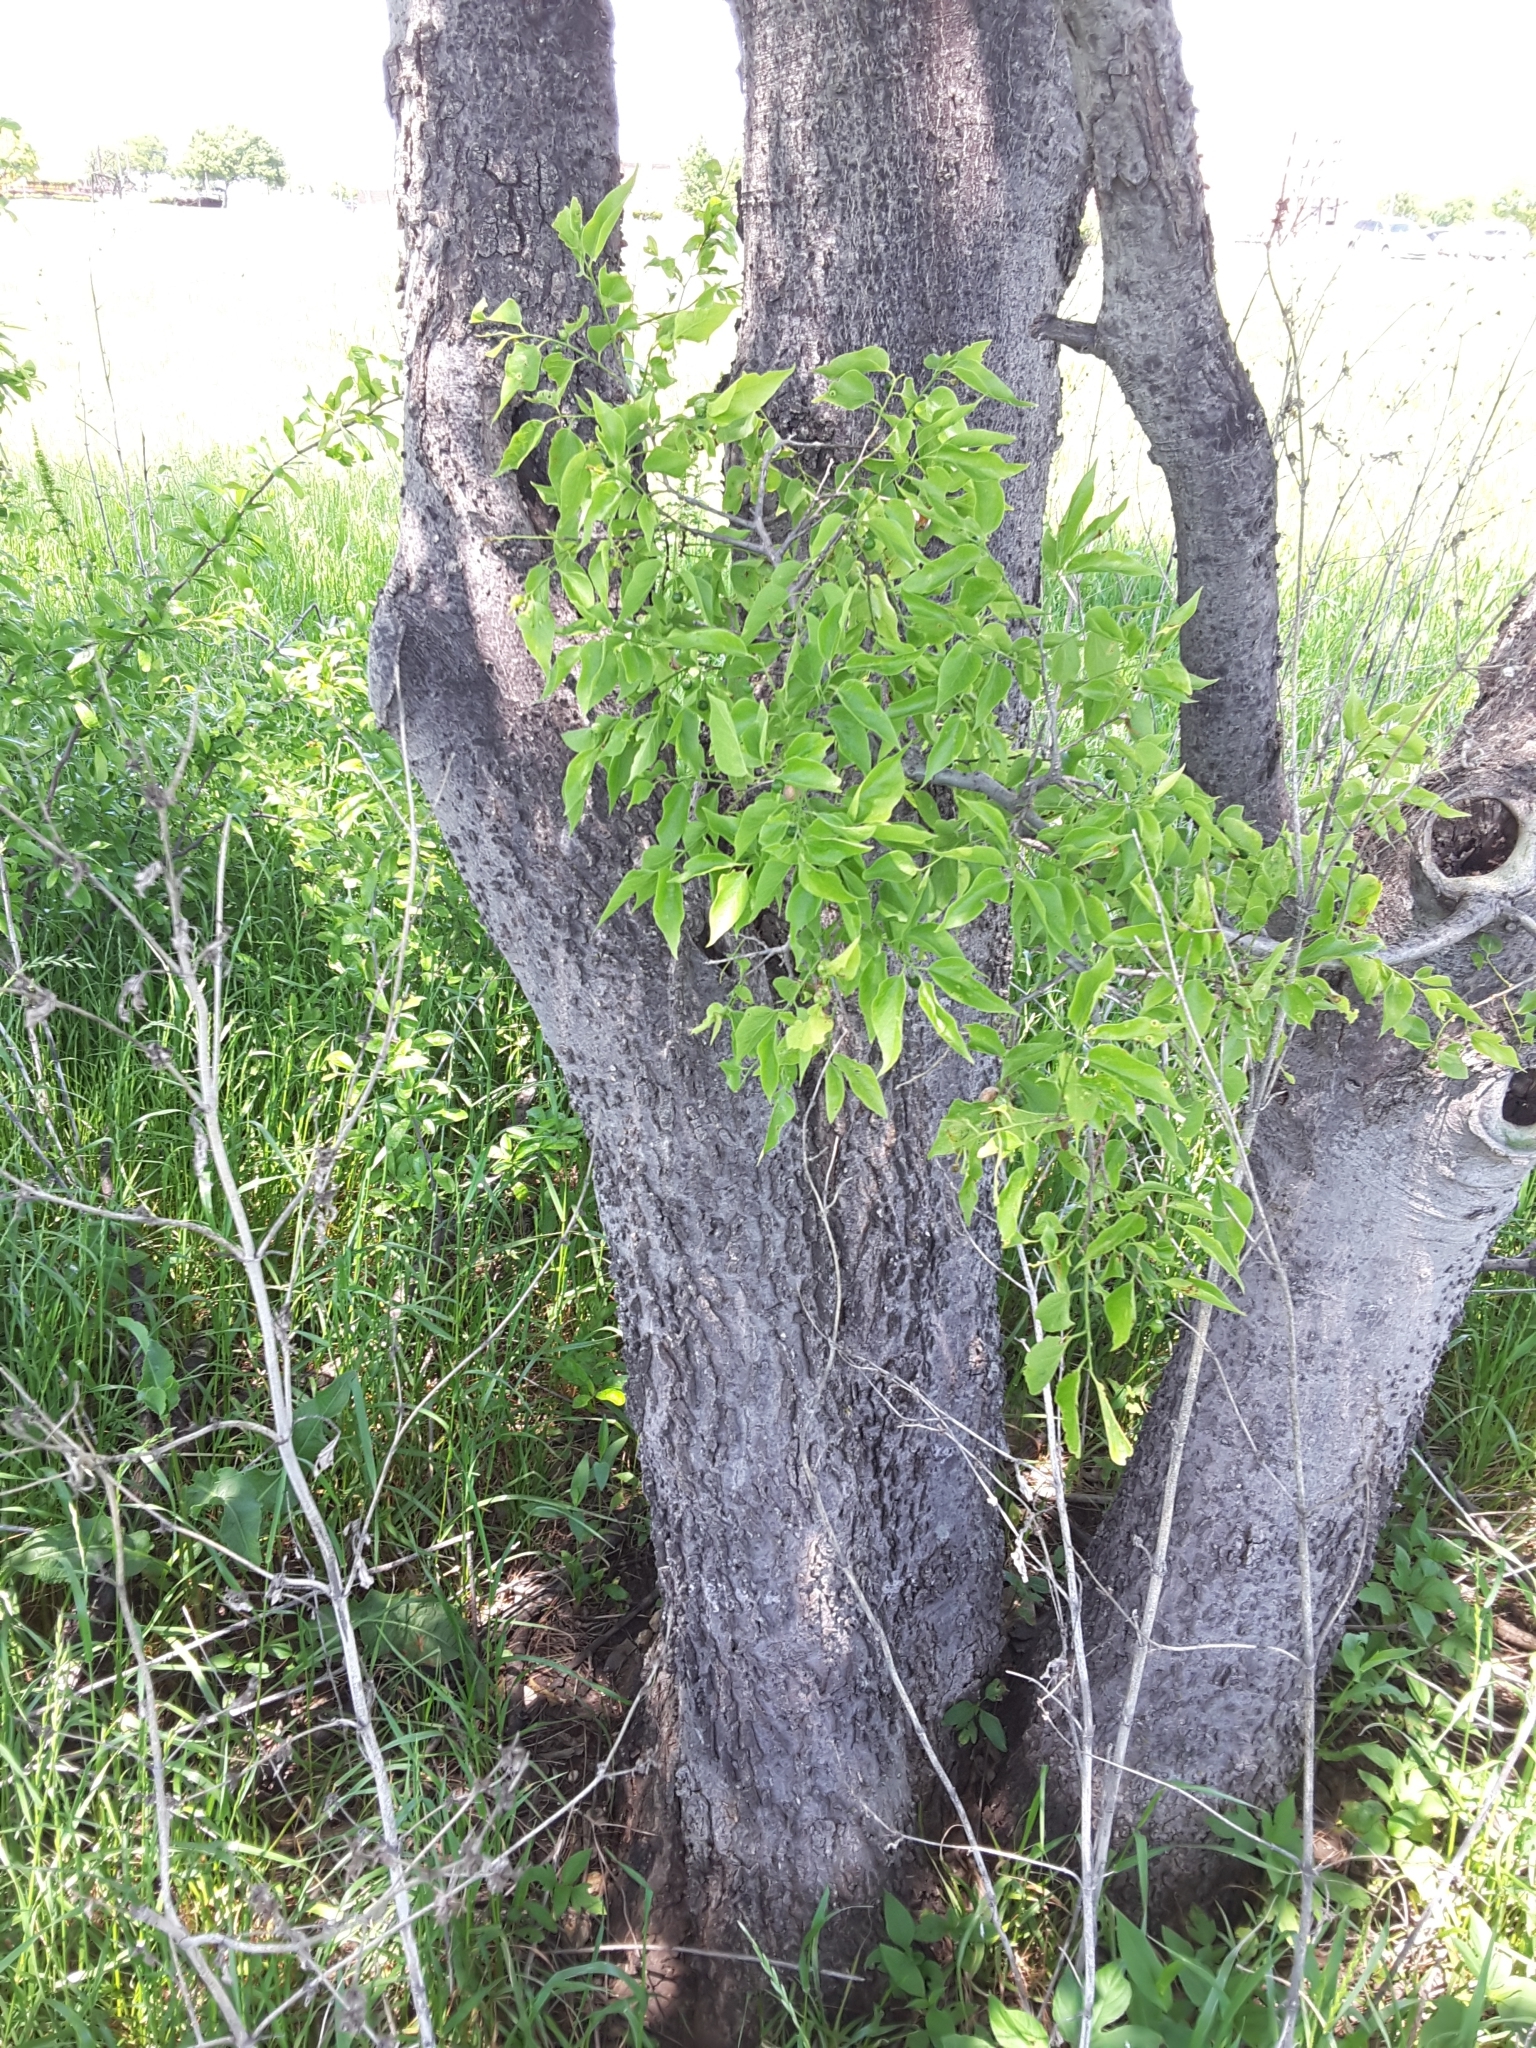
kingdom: Plantae
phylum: Tracheophyta
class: Magnoliopsida
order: Rosales
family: Cannabaceae
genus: Celtis
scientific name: Celtis laevigata
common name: Sugarberry
